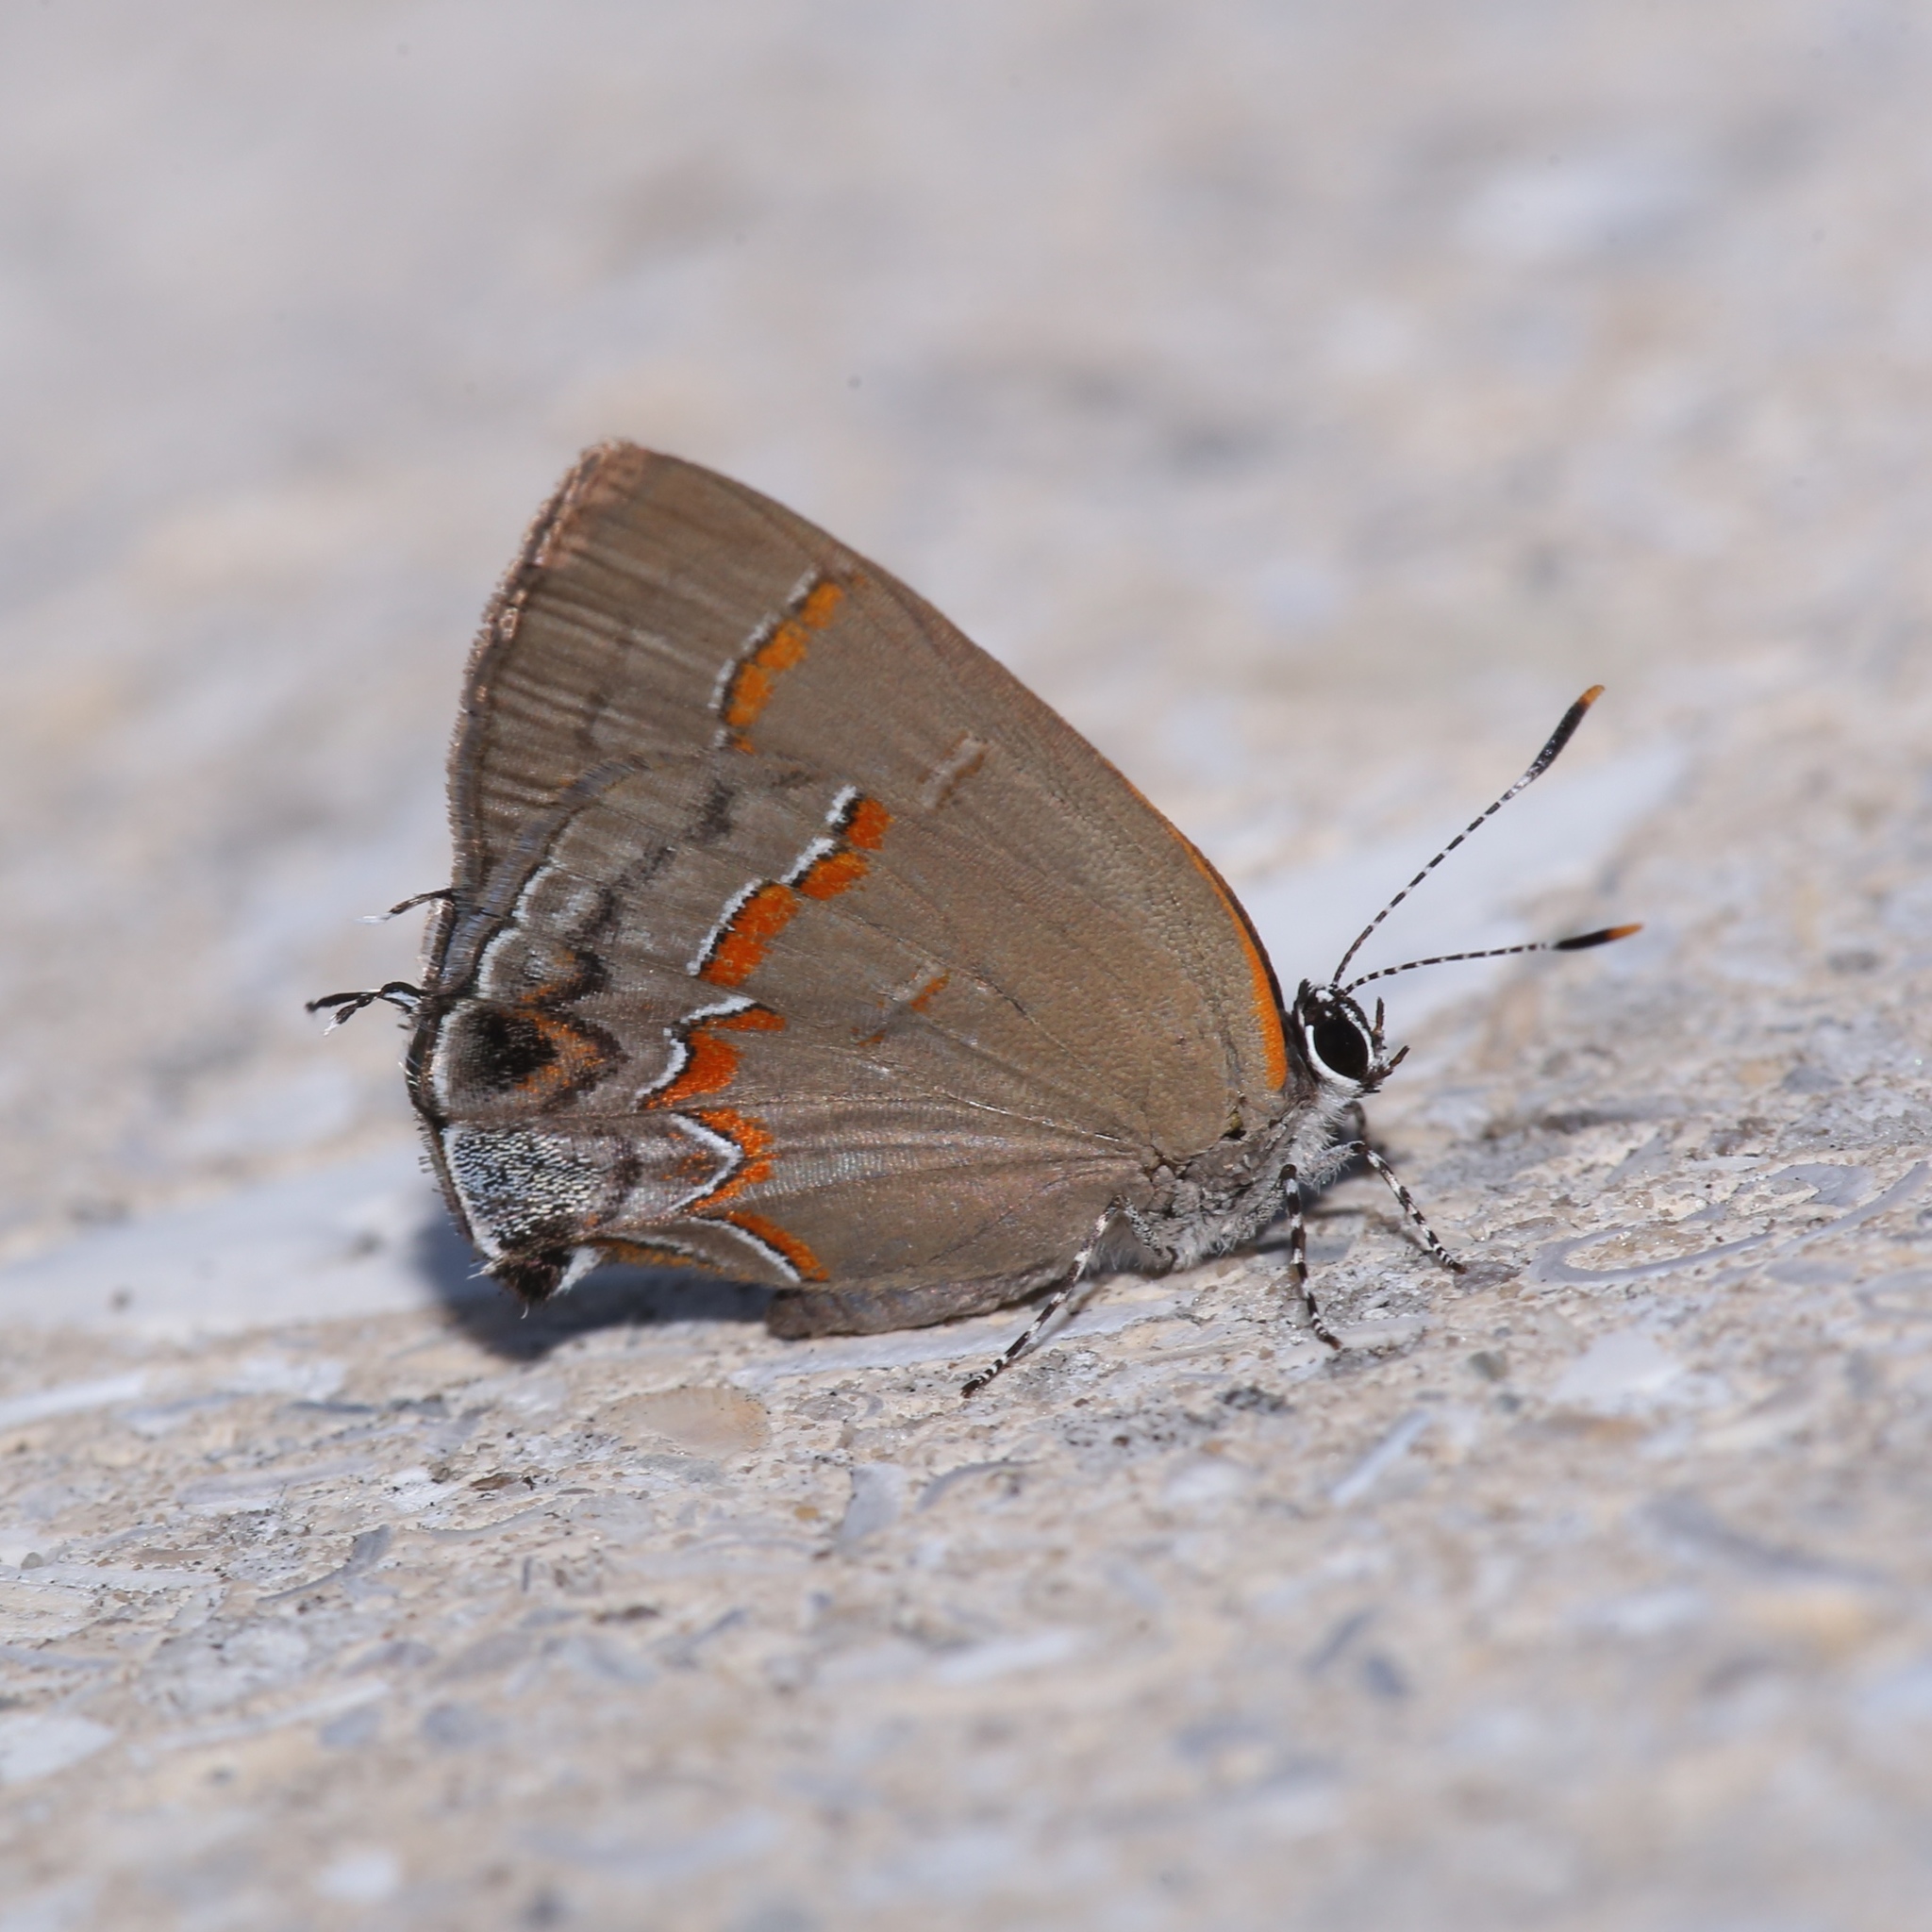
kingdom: Animalia
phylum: Arthropoda
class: Insecta
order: Lepidoptera
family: Lycaenidae
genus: Calycopis
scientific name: Calycopis cecrops
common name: Red-banded hairstreak
